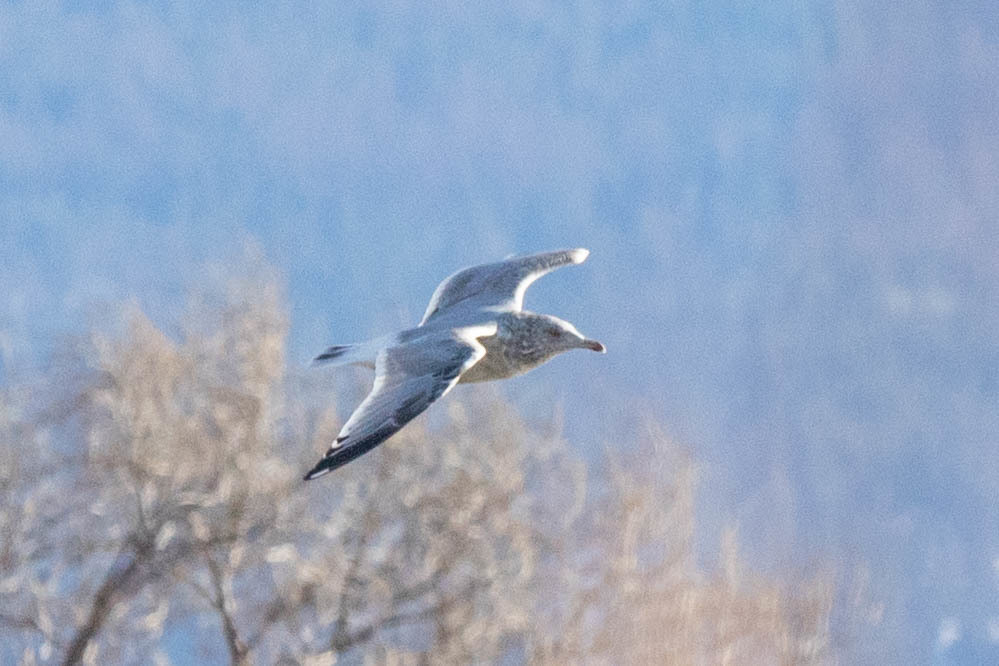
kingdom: Animalia
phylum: Chordata
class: Aves
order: Charadriiformes
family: Laridae
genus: Larus
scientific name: Larus argentatus
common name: Herring gull
